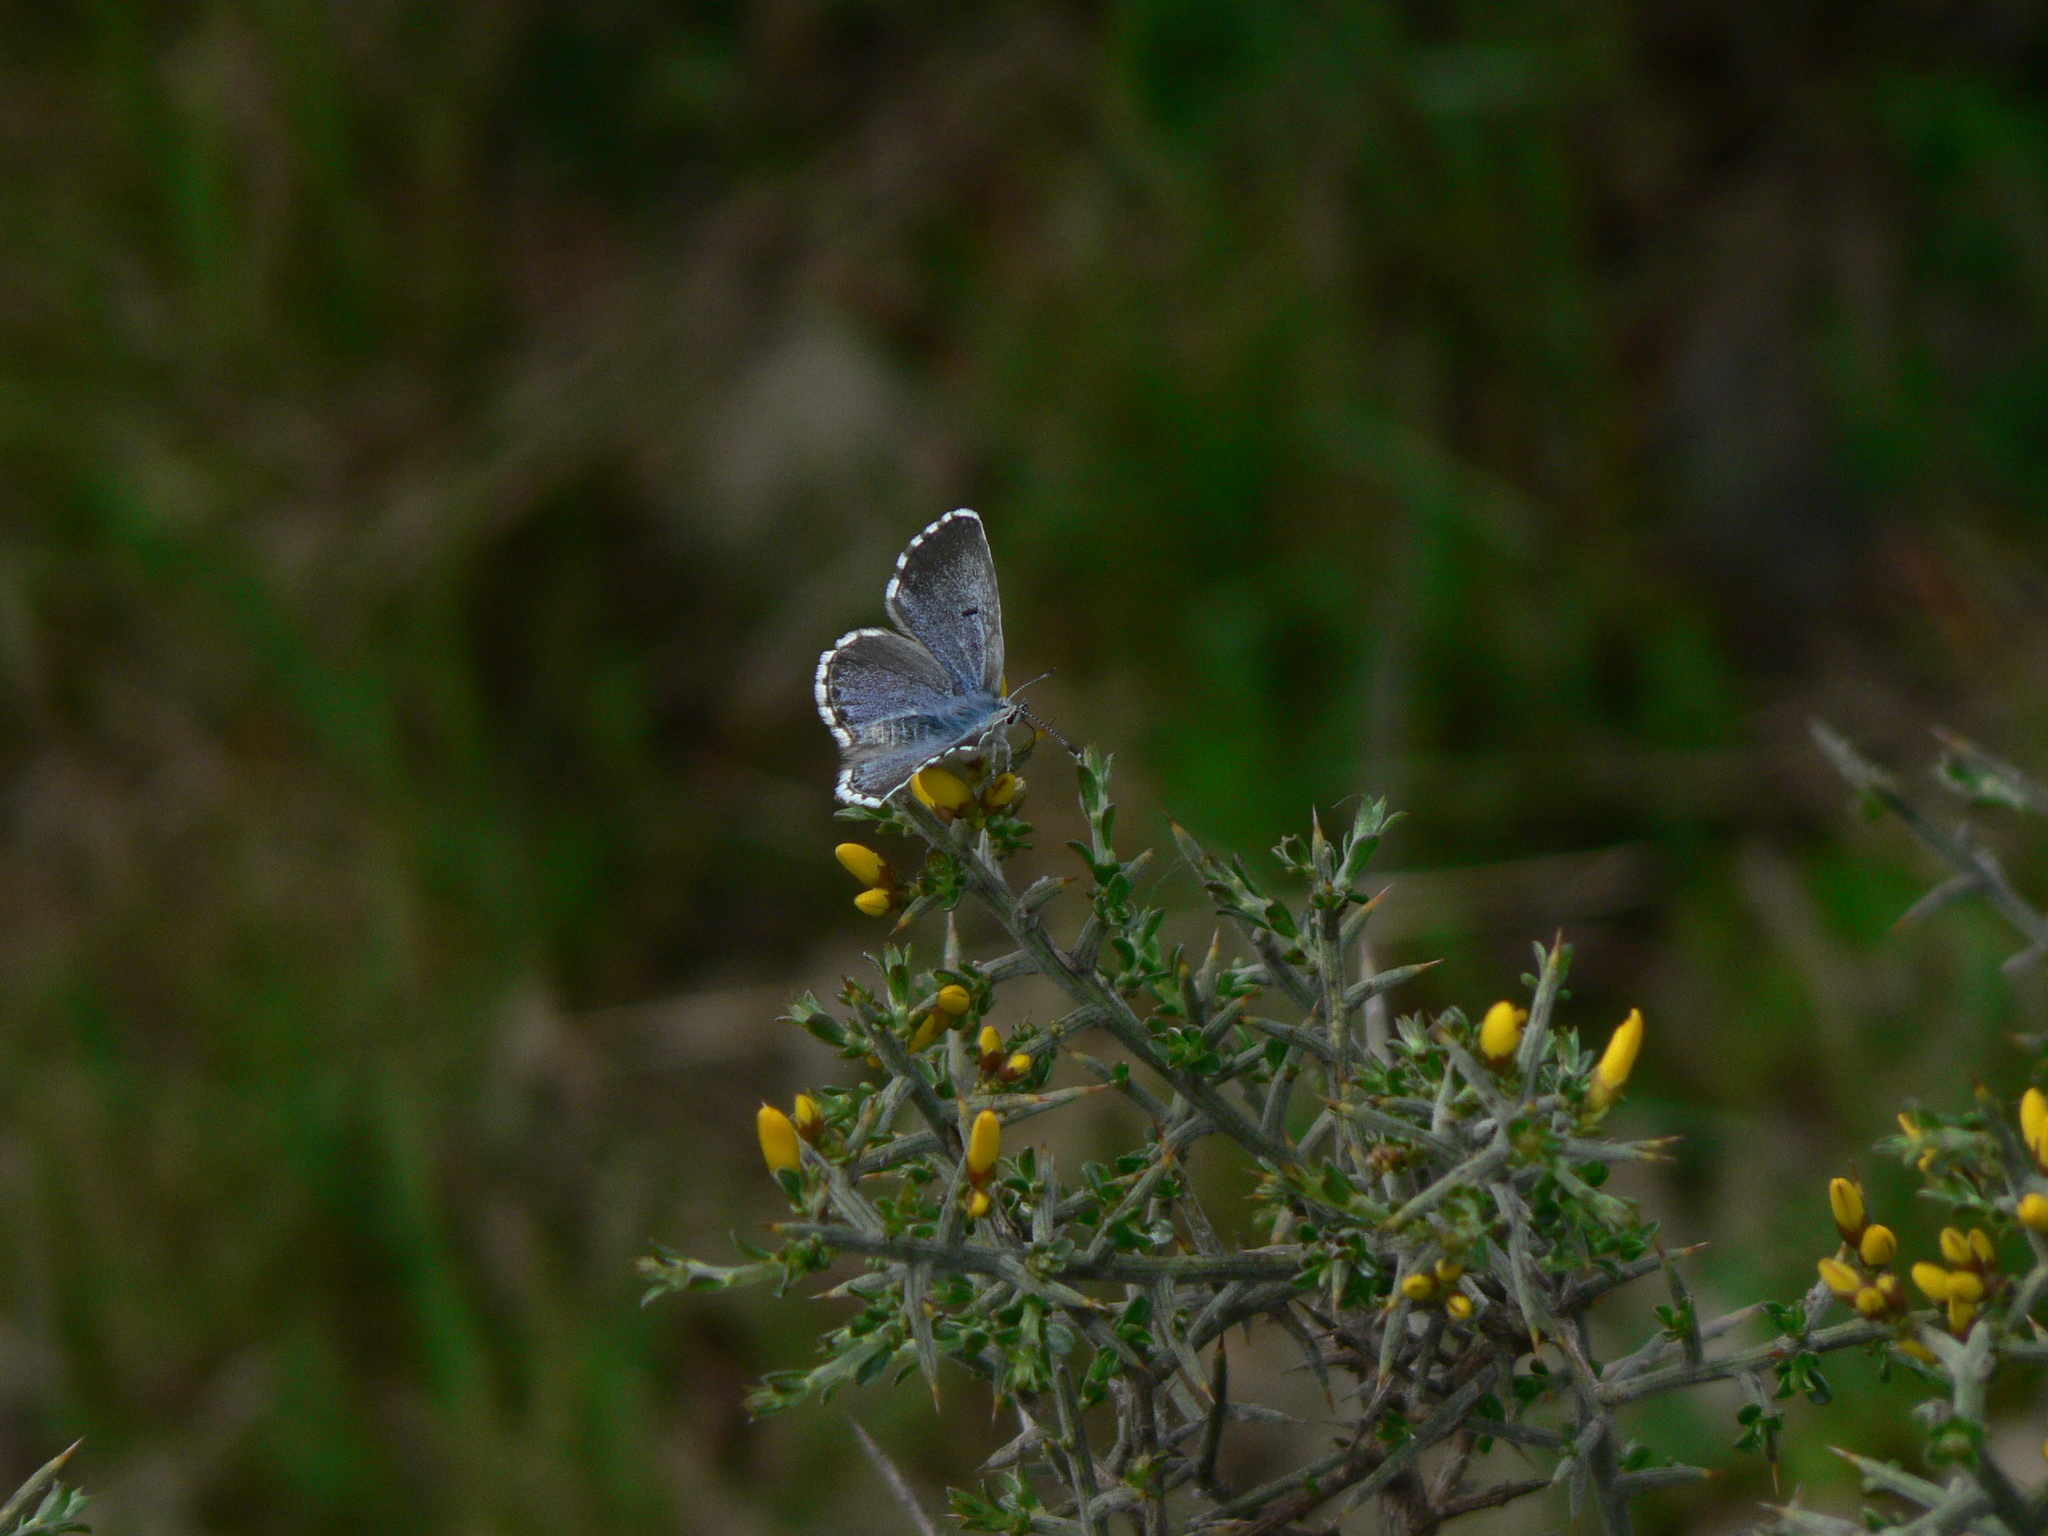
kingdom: Animalia
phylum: Arthropoda
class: Insecta
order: Lepidoptera
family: Lycaenidae
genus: Pseudophilotes
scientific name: Pseudophilotes baton
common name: Baton blue
